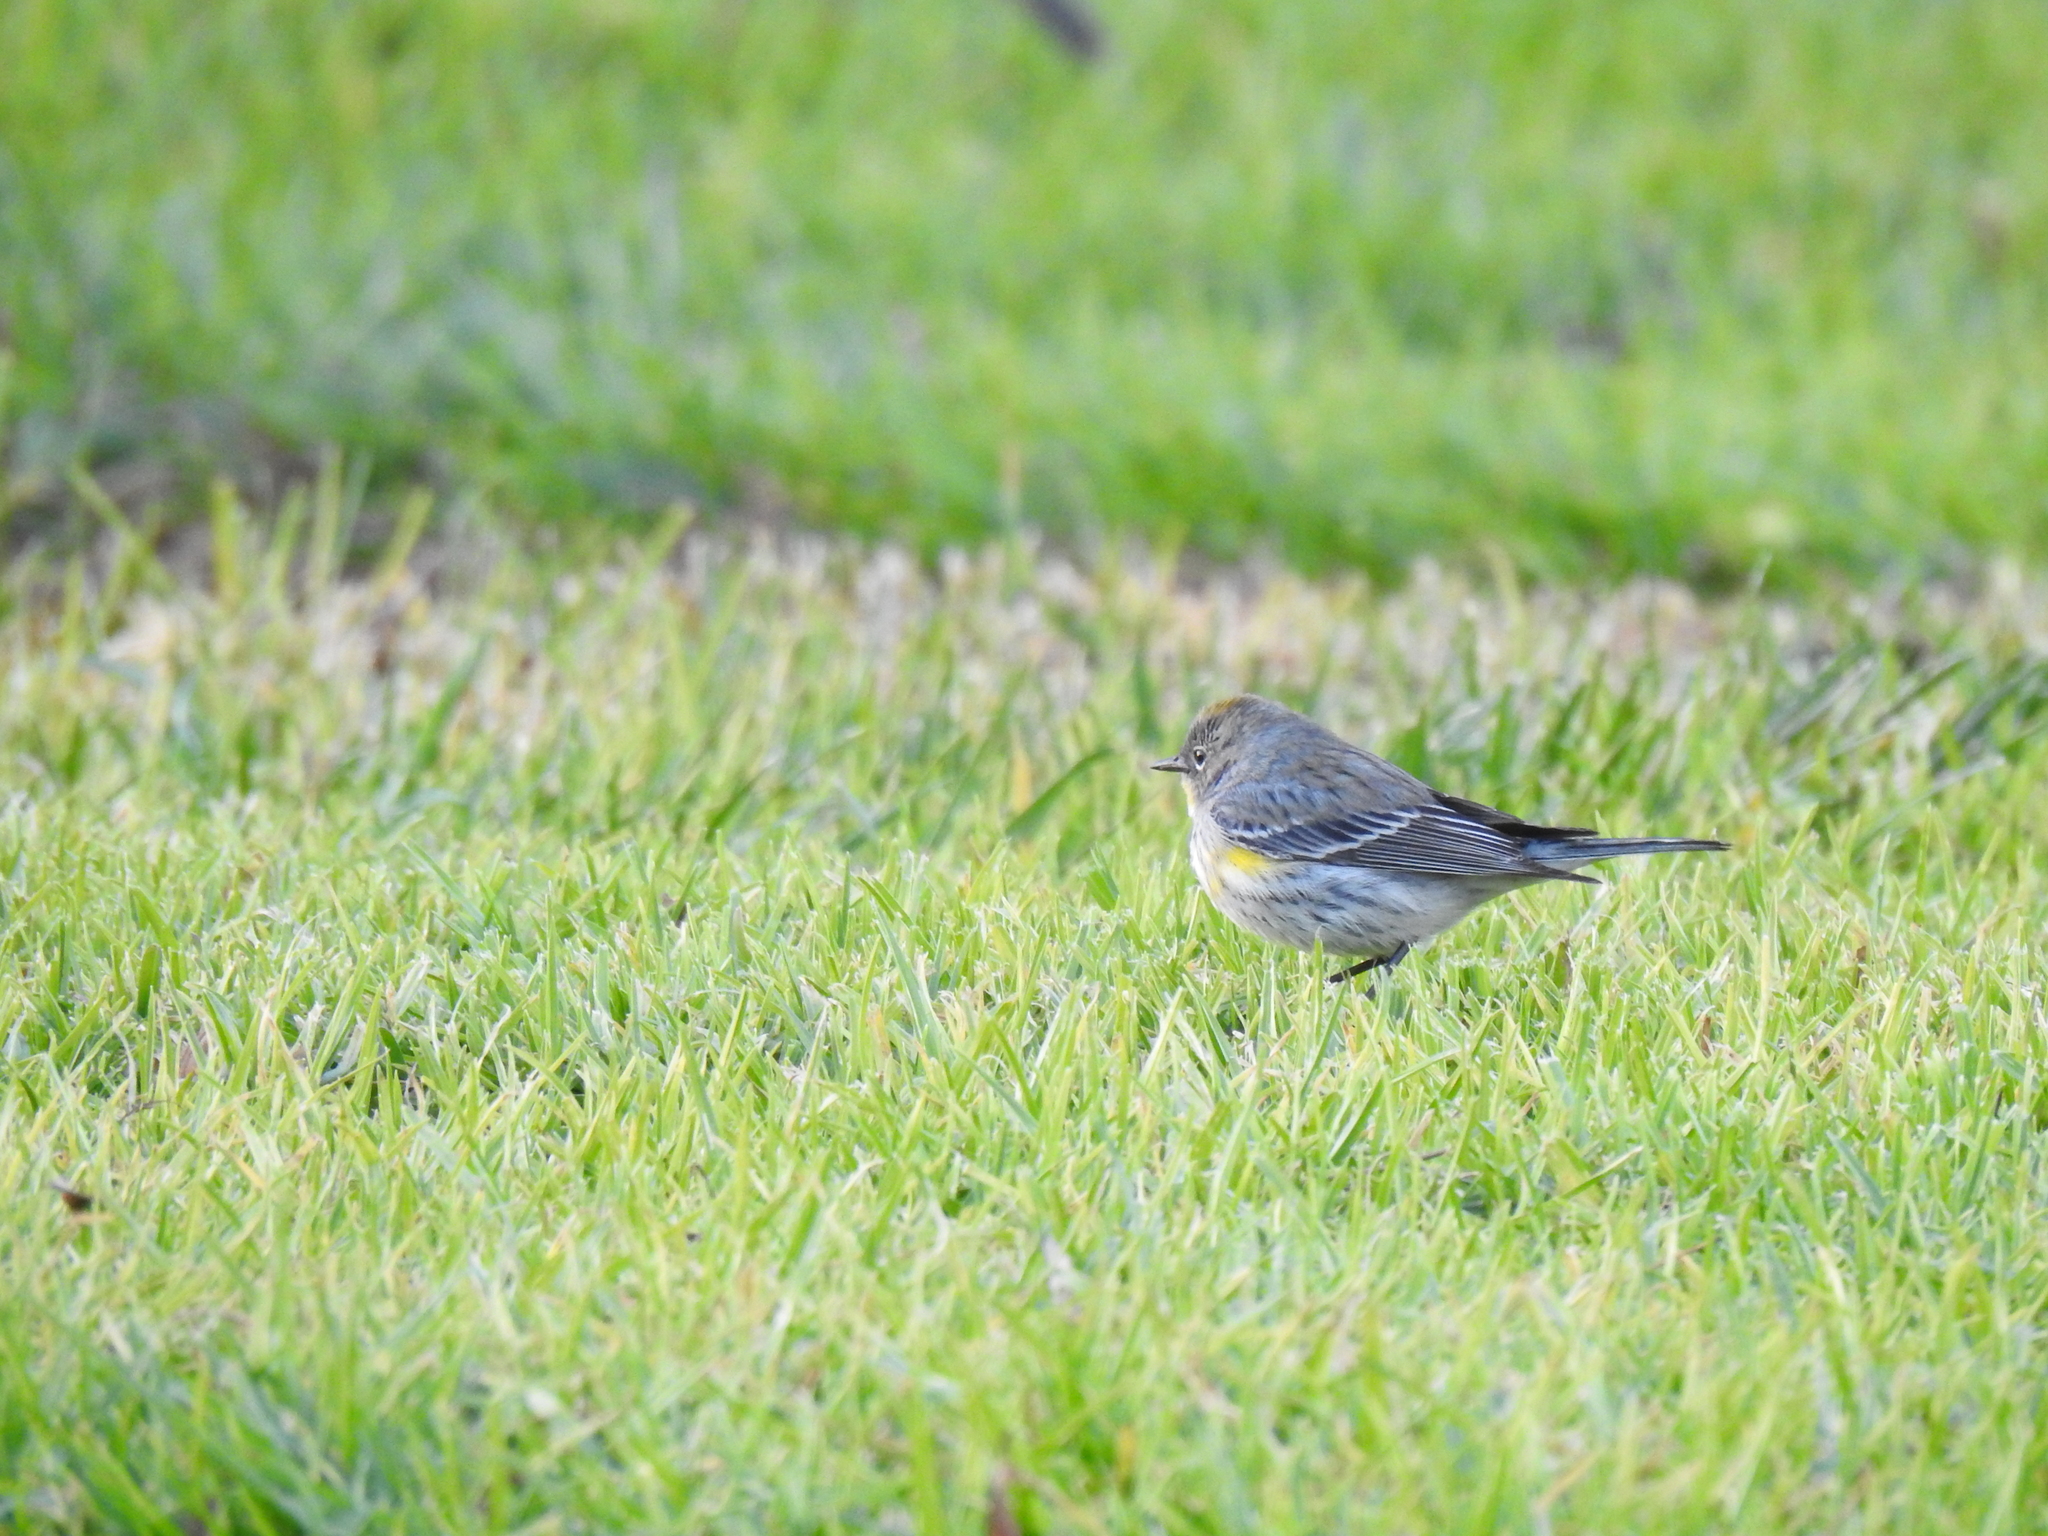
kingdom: Animalia
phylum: Chordata
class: Aves
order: Passeriformes
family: Parulidae
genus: Setophaga
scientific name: Setophaga coronata
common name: Myrtle warbler
